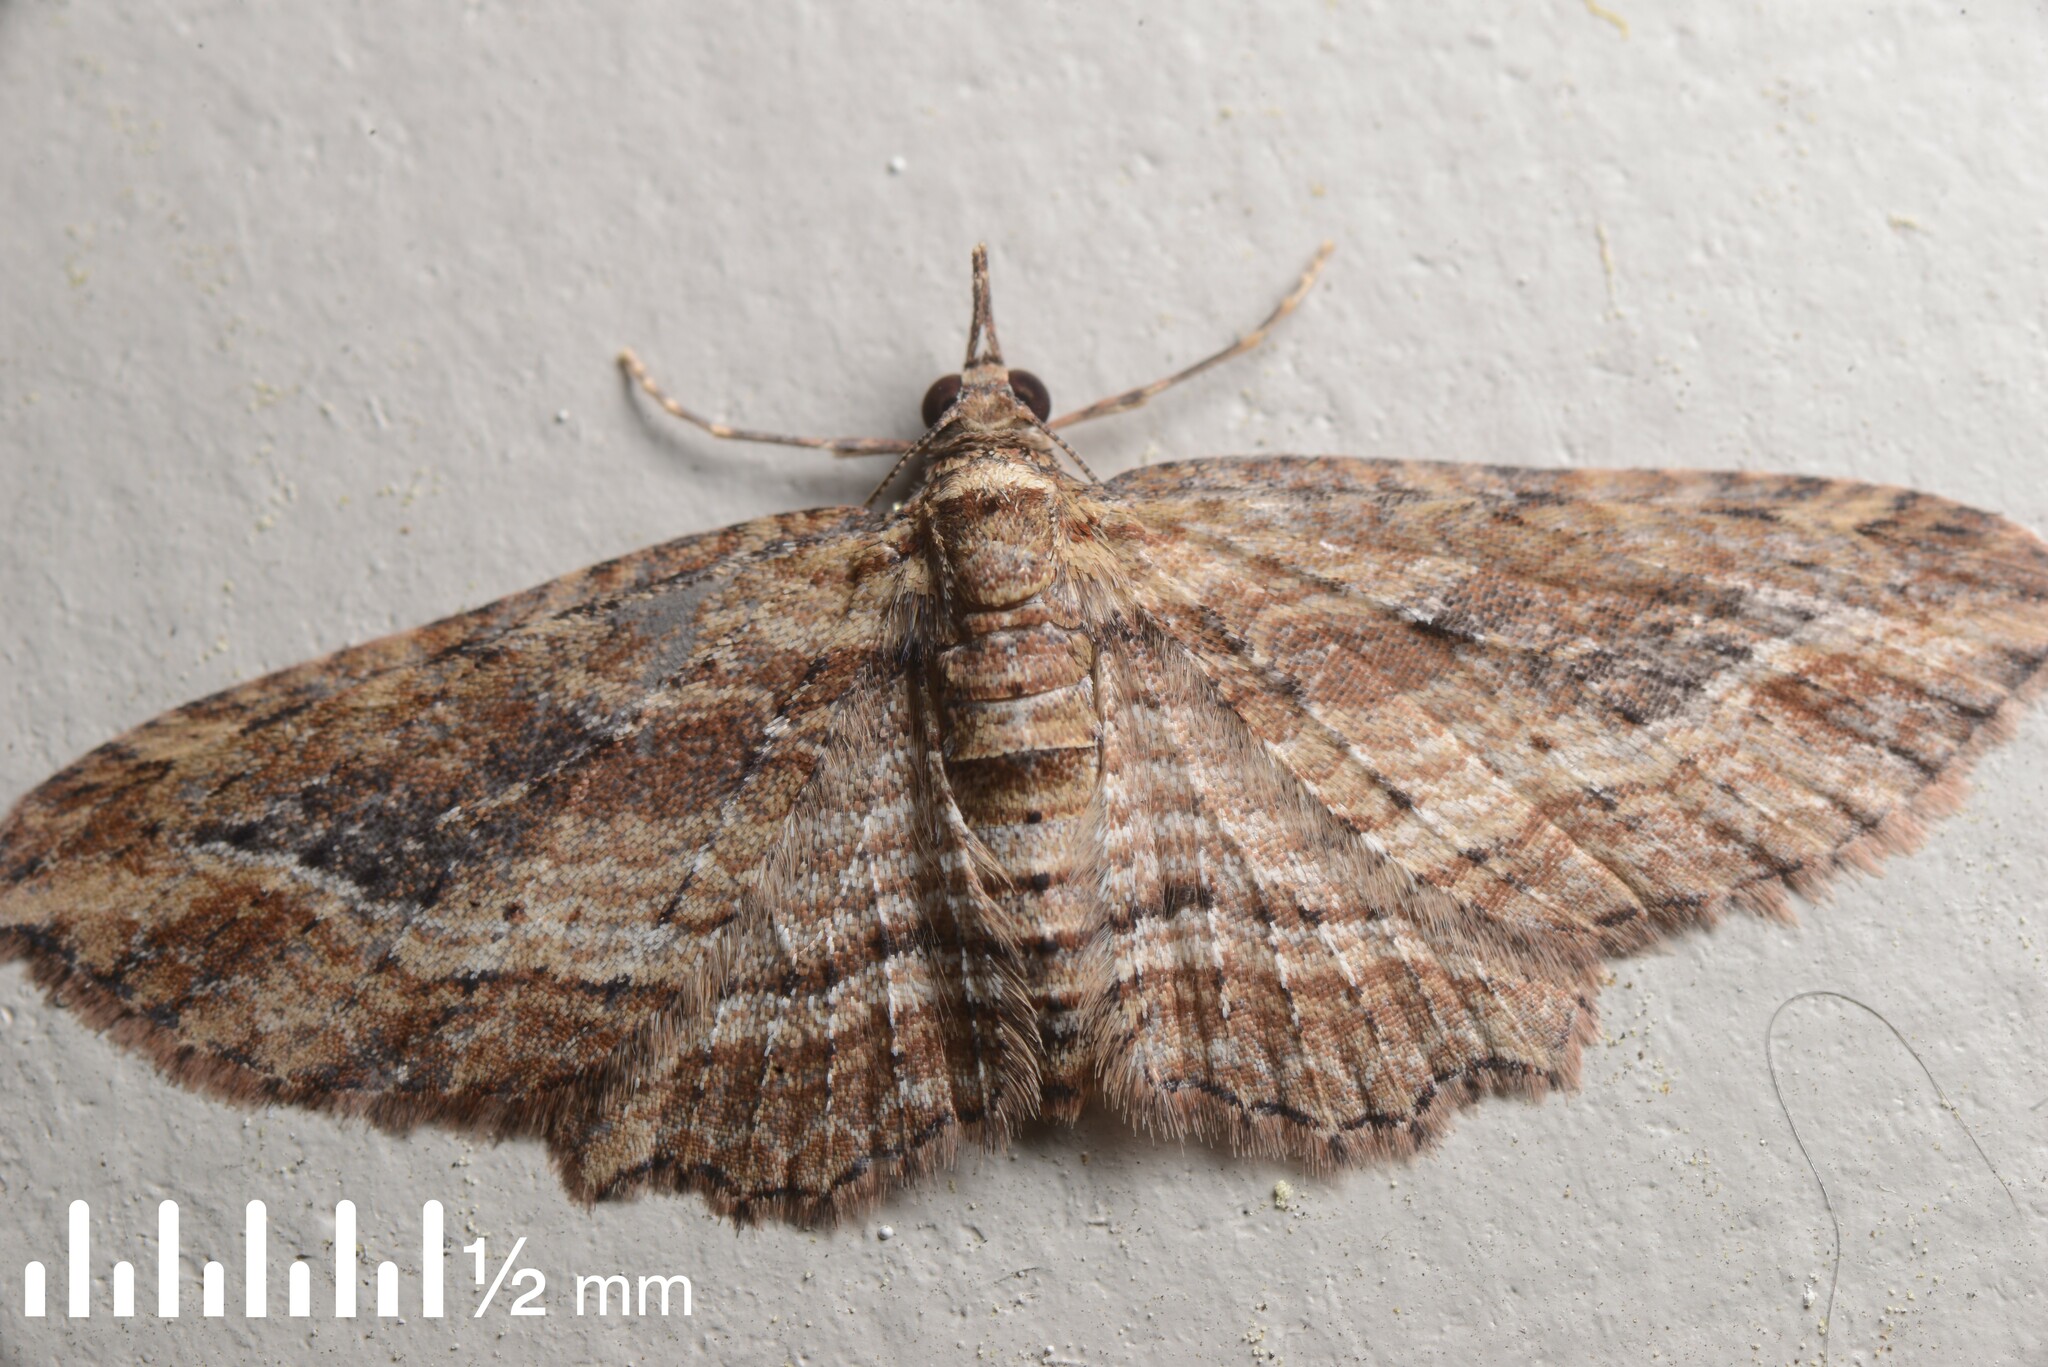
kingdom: Animalia
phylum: Arthropoda
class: Insecta
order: Lepidoptera
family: Geometridae
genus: Chloroclystis
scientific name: Chloroclystis filata
